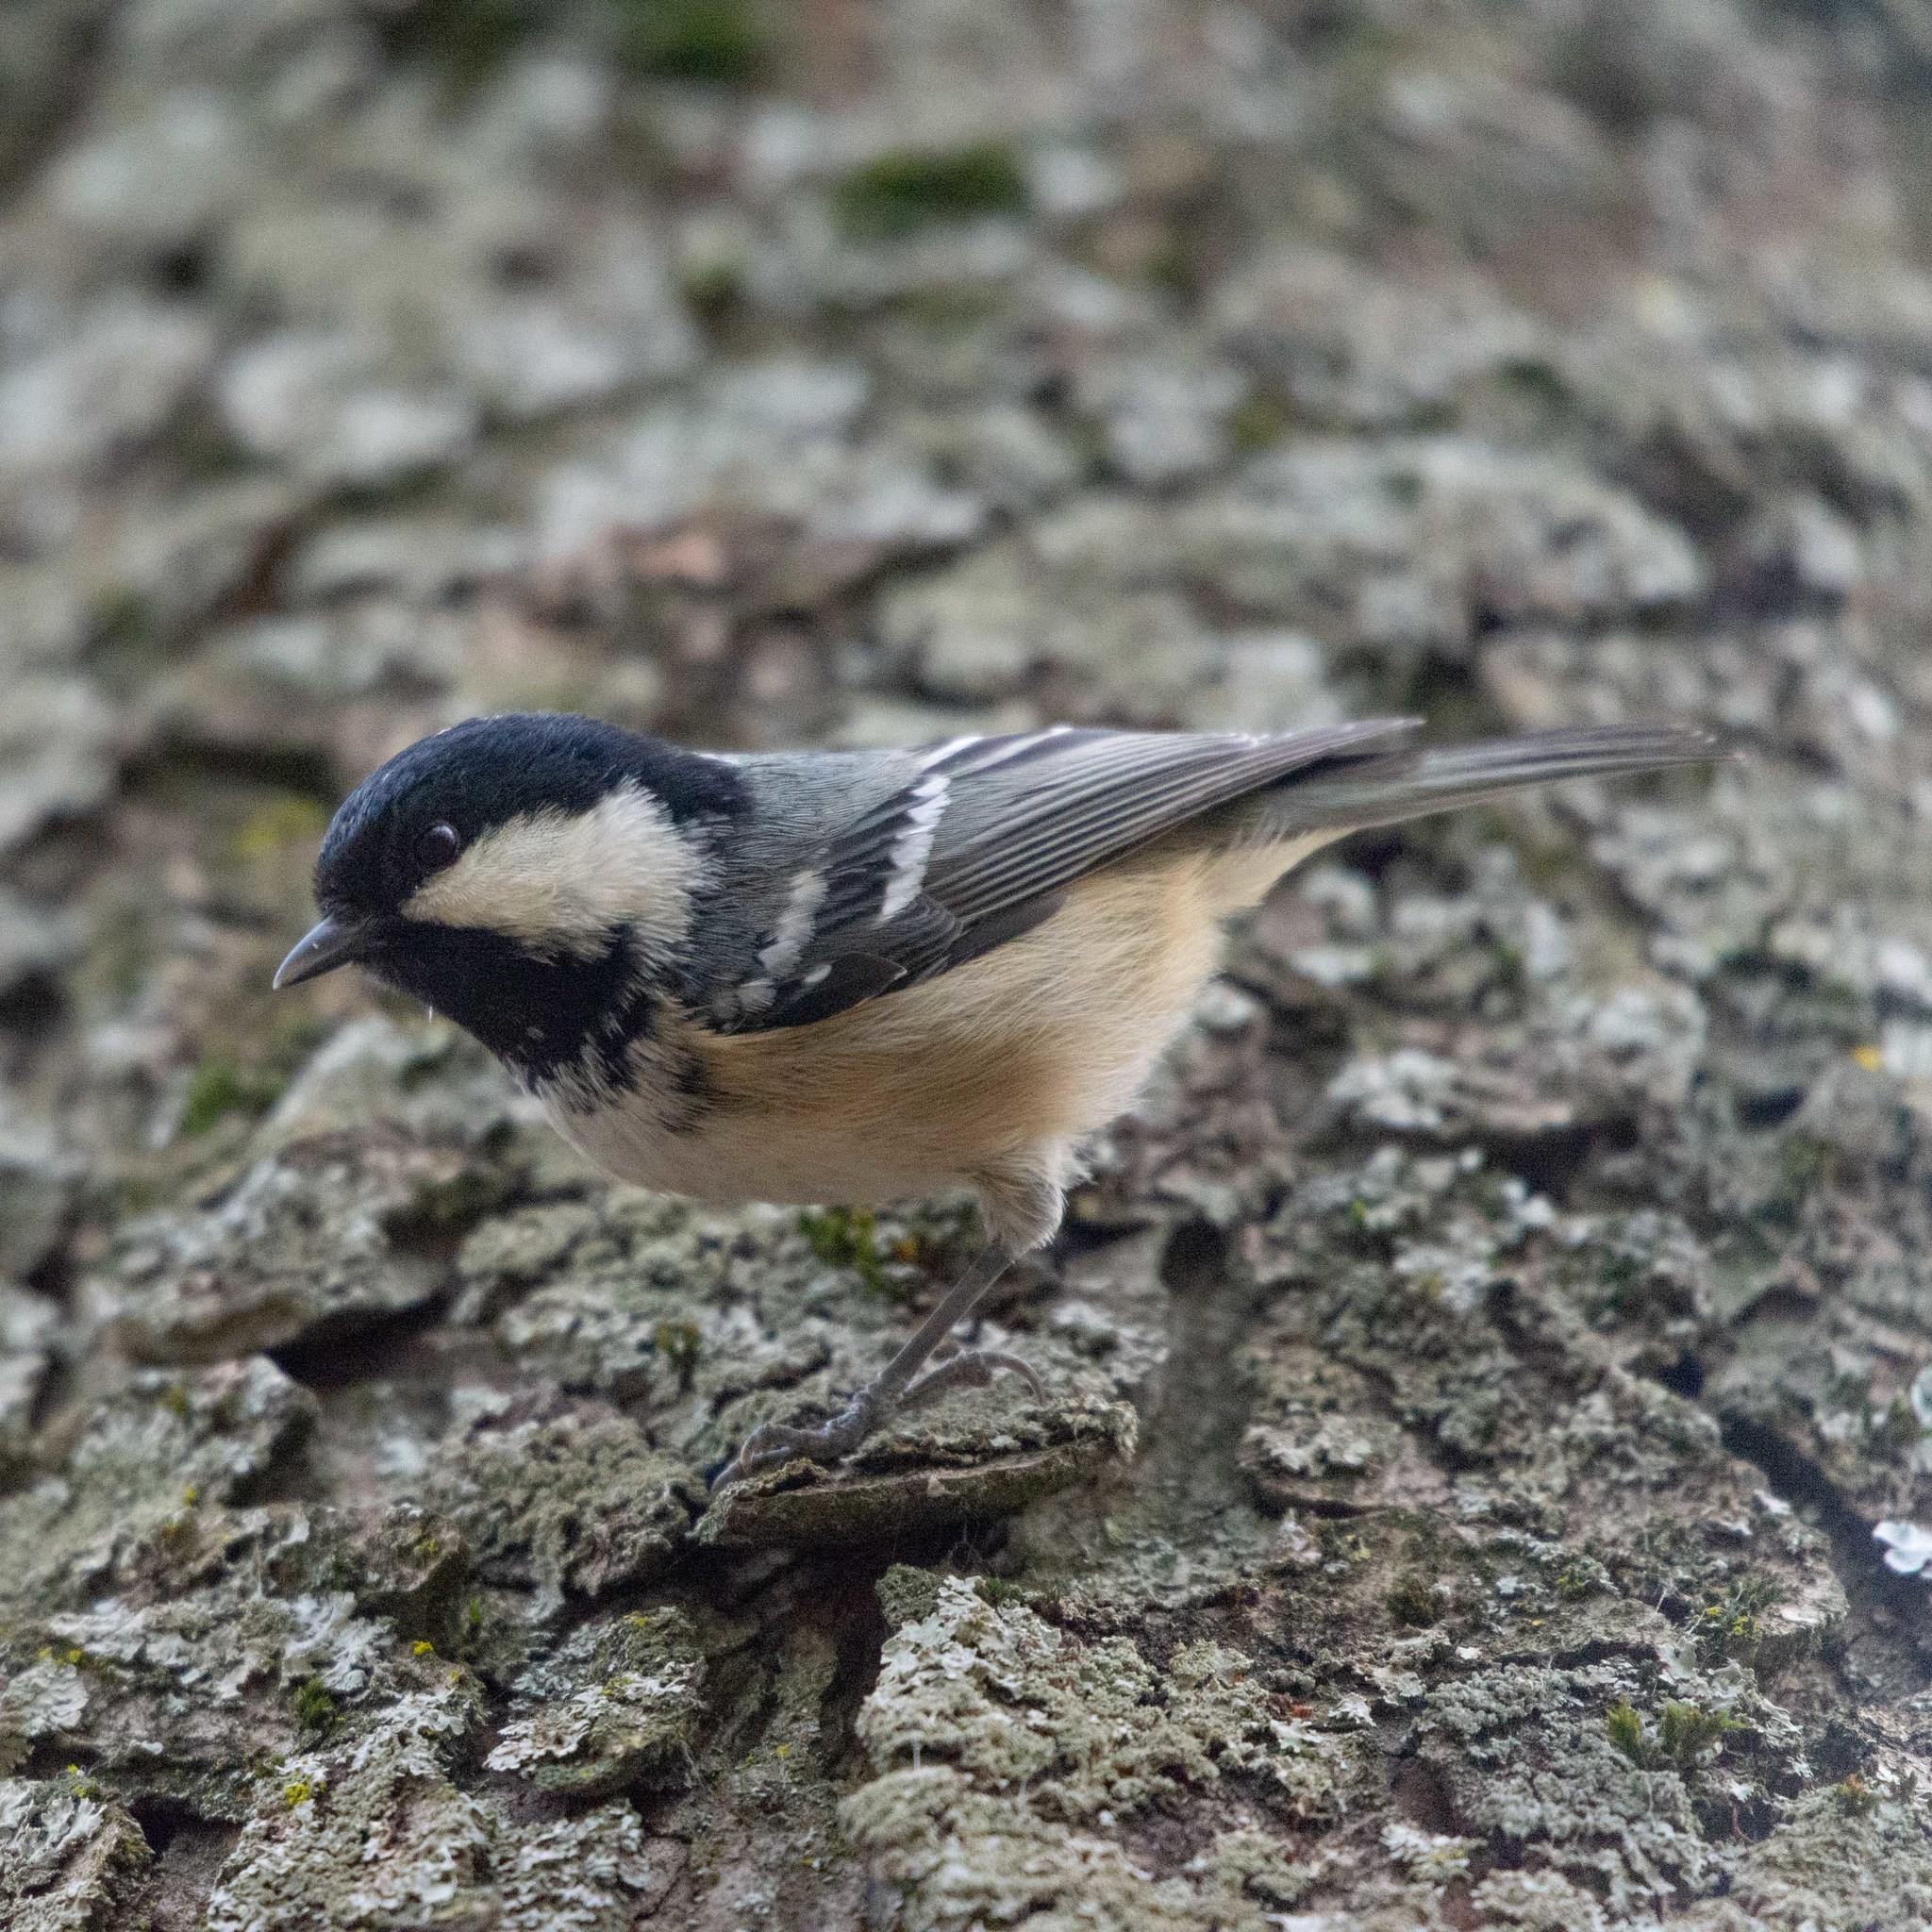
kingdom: Animalia
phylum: Chordata
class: Aves
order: Passeriformes
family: Paridae
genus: Periparus
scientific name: Periparus ater
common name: Coal tit
